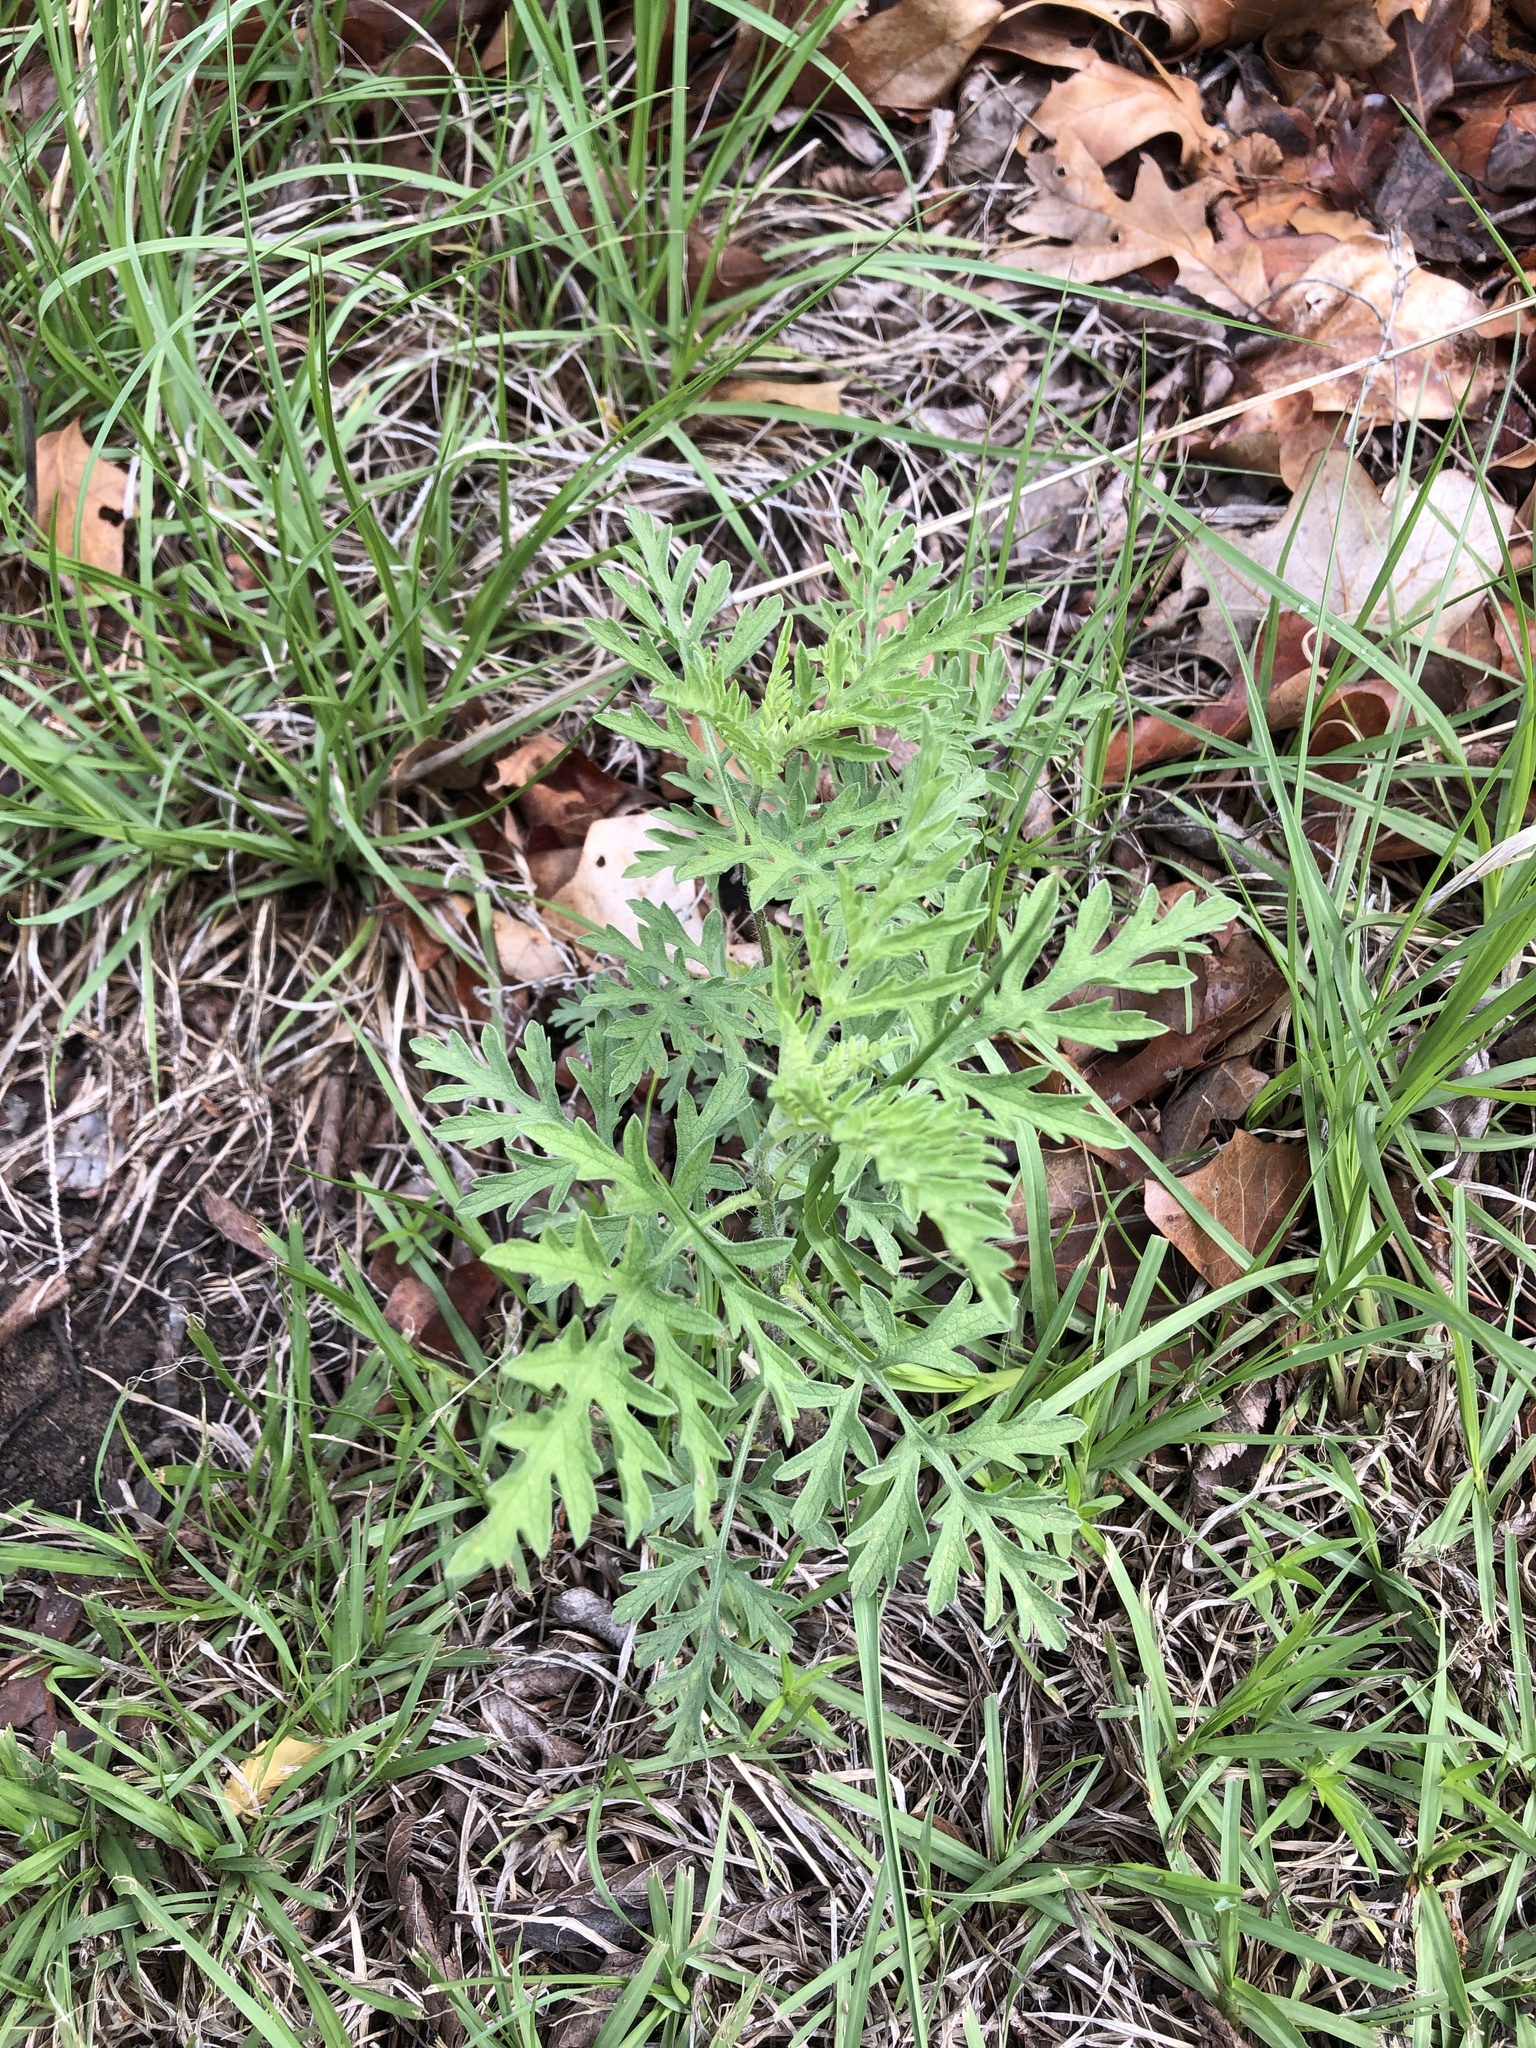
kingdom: Plantae
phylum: Tracheophyta
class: Magnoliopsida
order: Asterales
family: Asteraceae
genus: Ambrosia
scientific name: Ambrosia psilostachya
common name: Perennial ragweed
